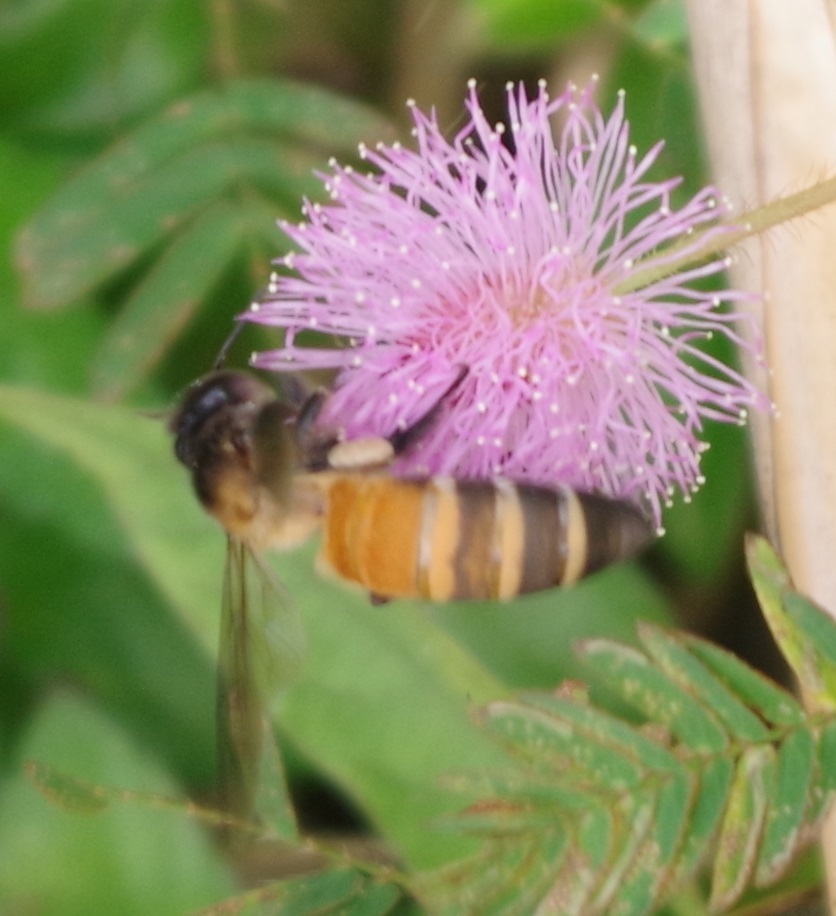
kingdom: Animalia
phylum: Arthropoda
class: Insecta
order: Hymenoptera
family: Apidae
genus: Apis
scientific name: Apis dorsata
